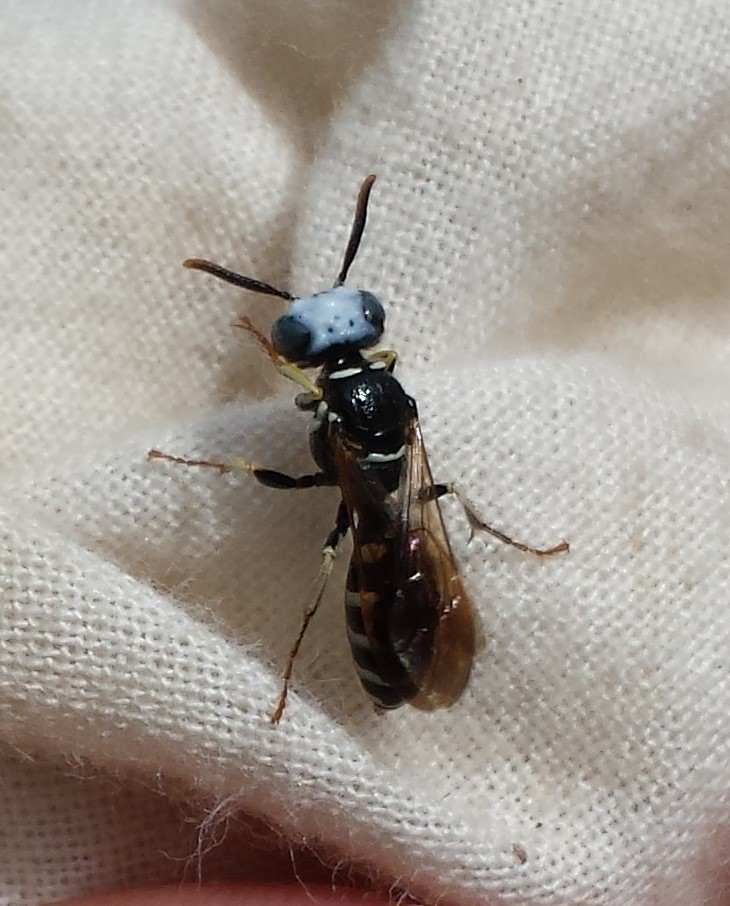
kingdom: Animalia
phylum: Arthropoda
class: Insecta
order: Hymenoptera
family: Crabronidae
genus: Philanthus
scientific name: Philanthus politus
